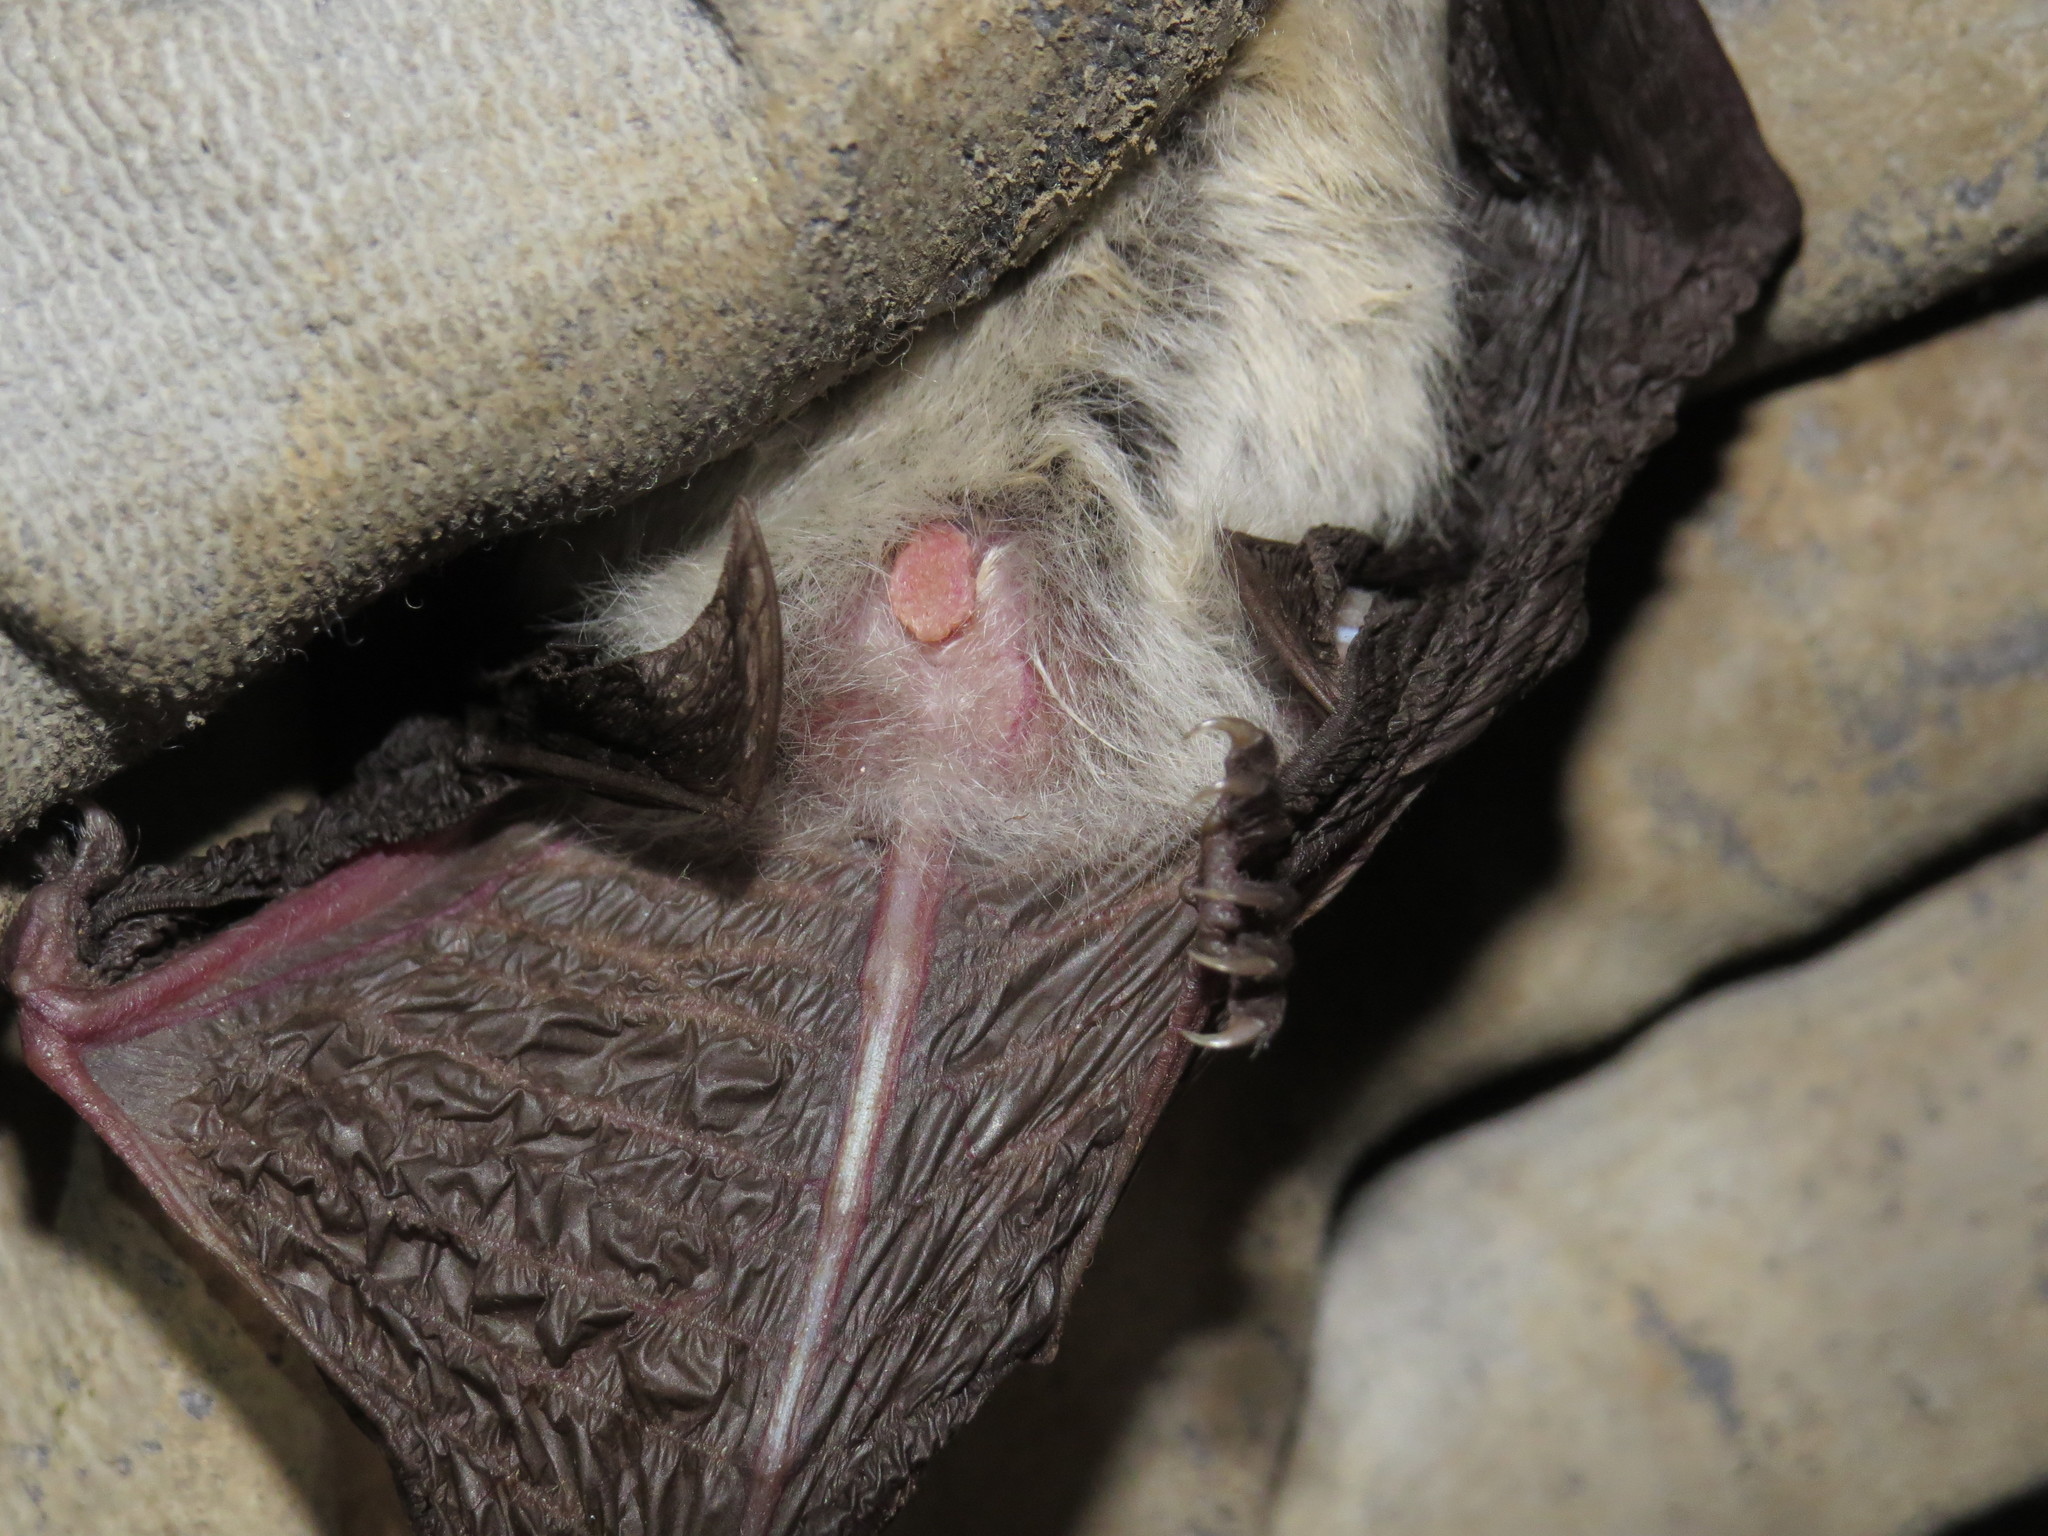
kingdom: Animalia
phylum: Chordata
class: Mammalia
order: Chiroptera
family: Vespertilionidae
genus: Plecotus
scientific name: Plecotus austriacus
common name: Grey long-eared bat
